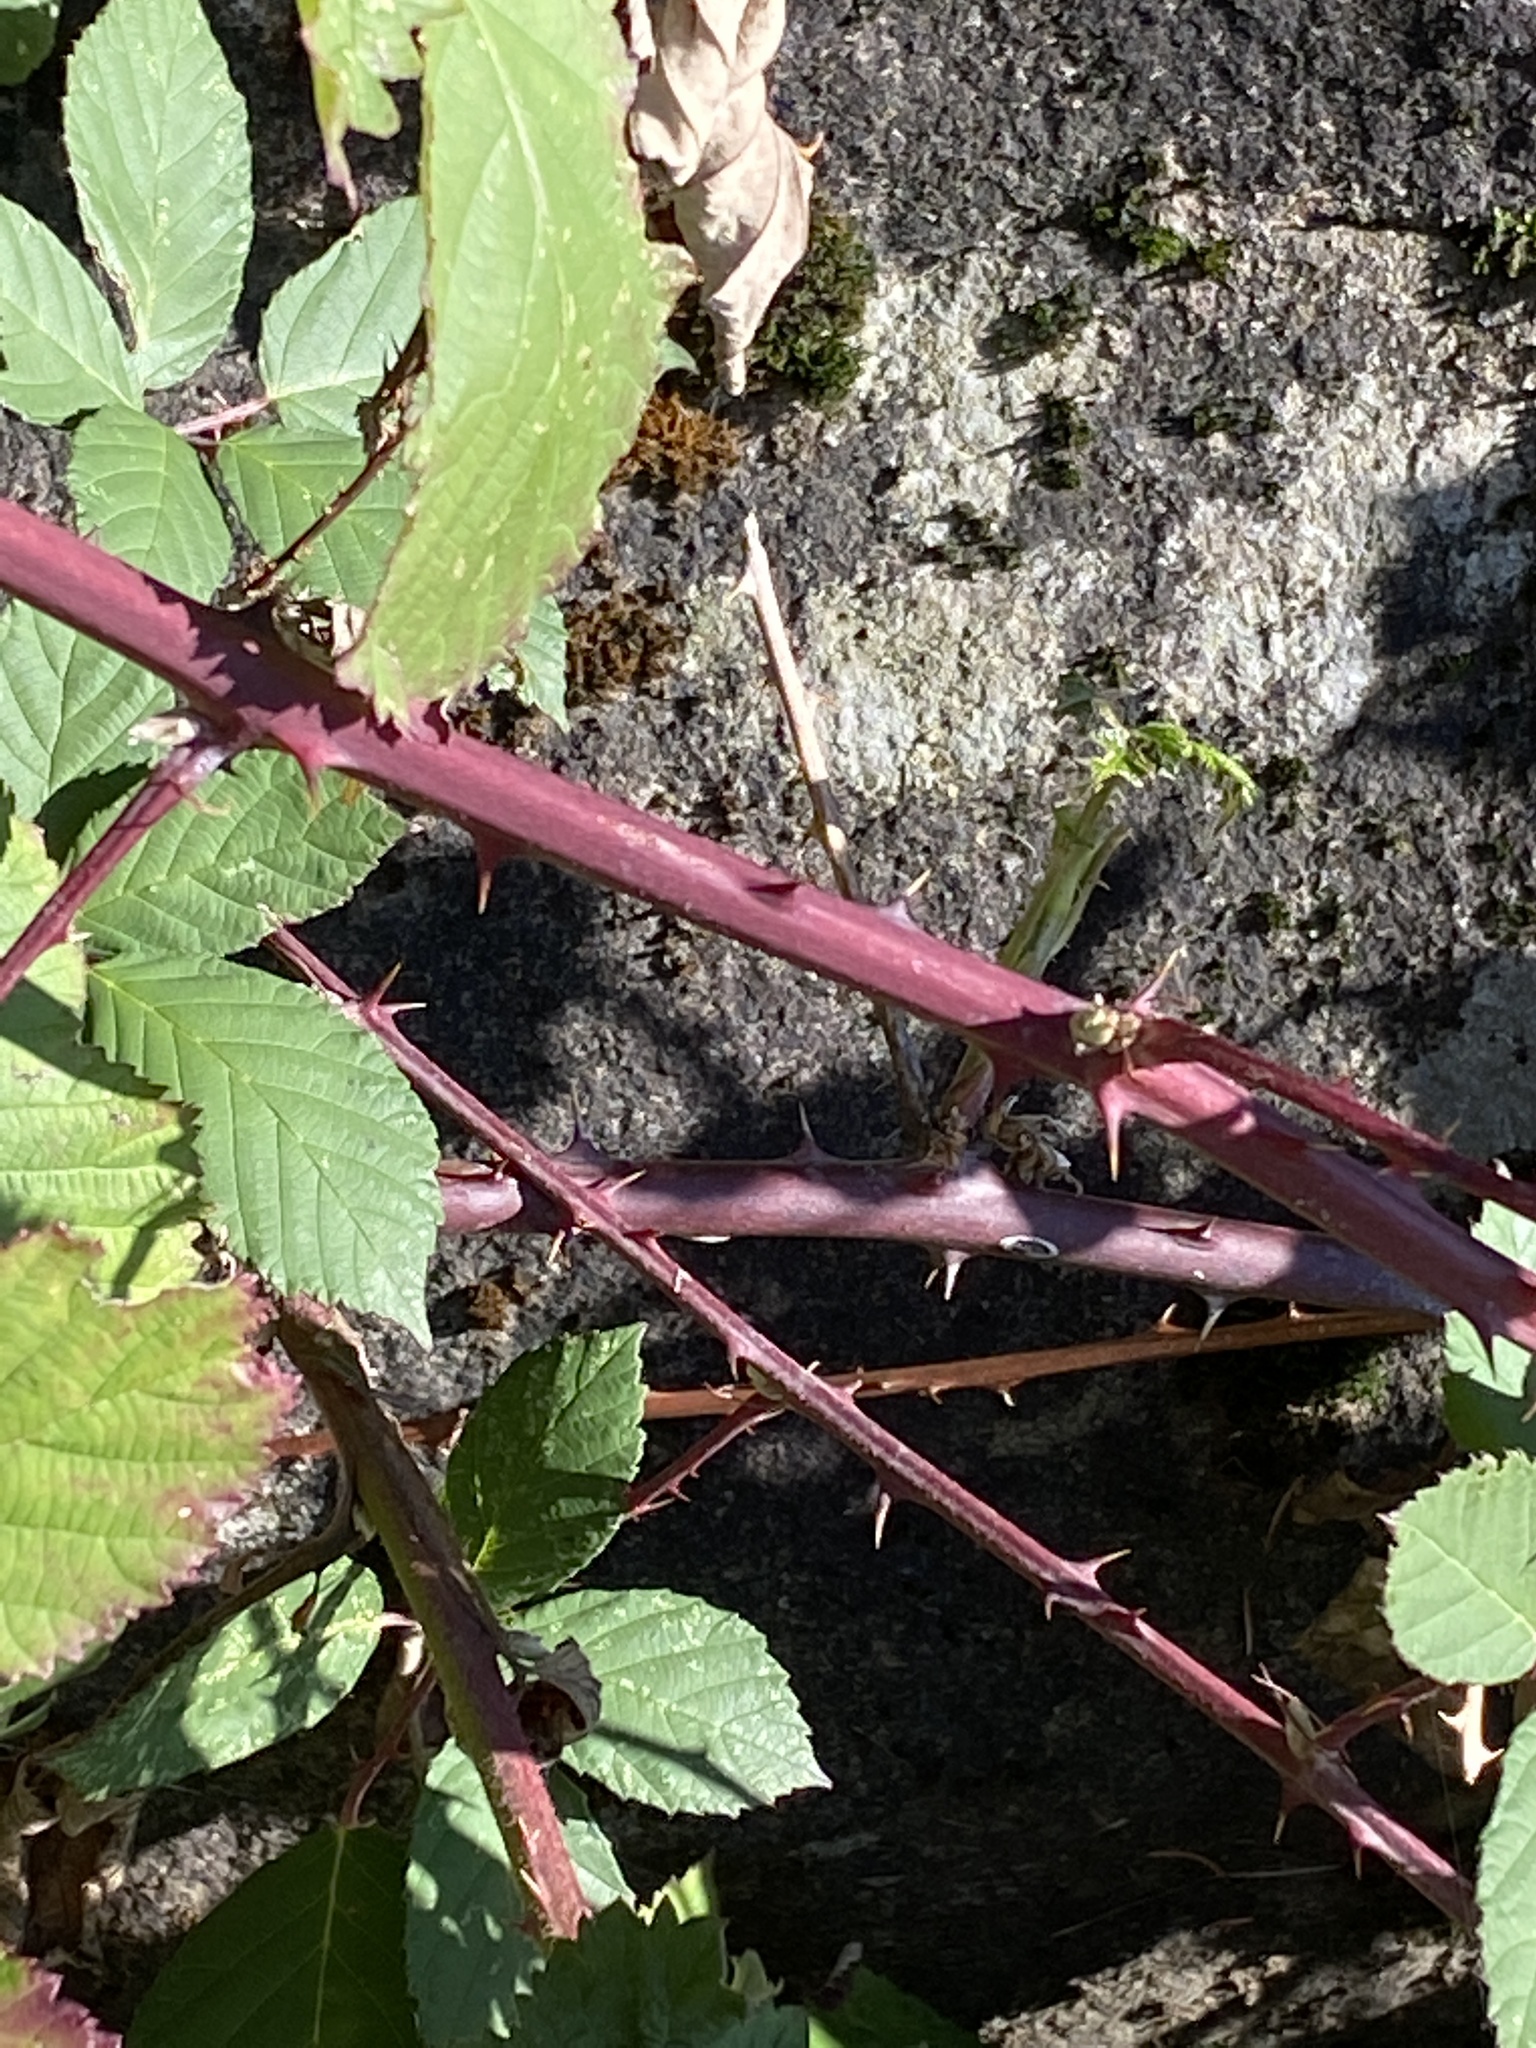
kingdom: Plantae
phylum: Tracheophyta
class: Magnoliopsida
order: Rosales
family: Rosaceae
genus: Rubus
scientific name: Rubus bifrons
